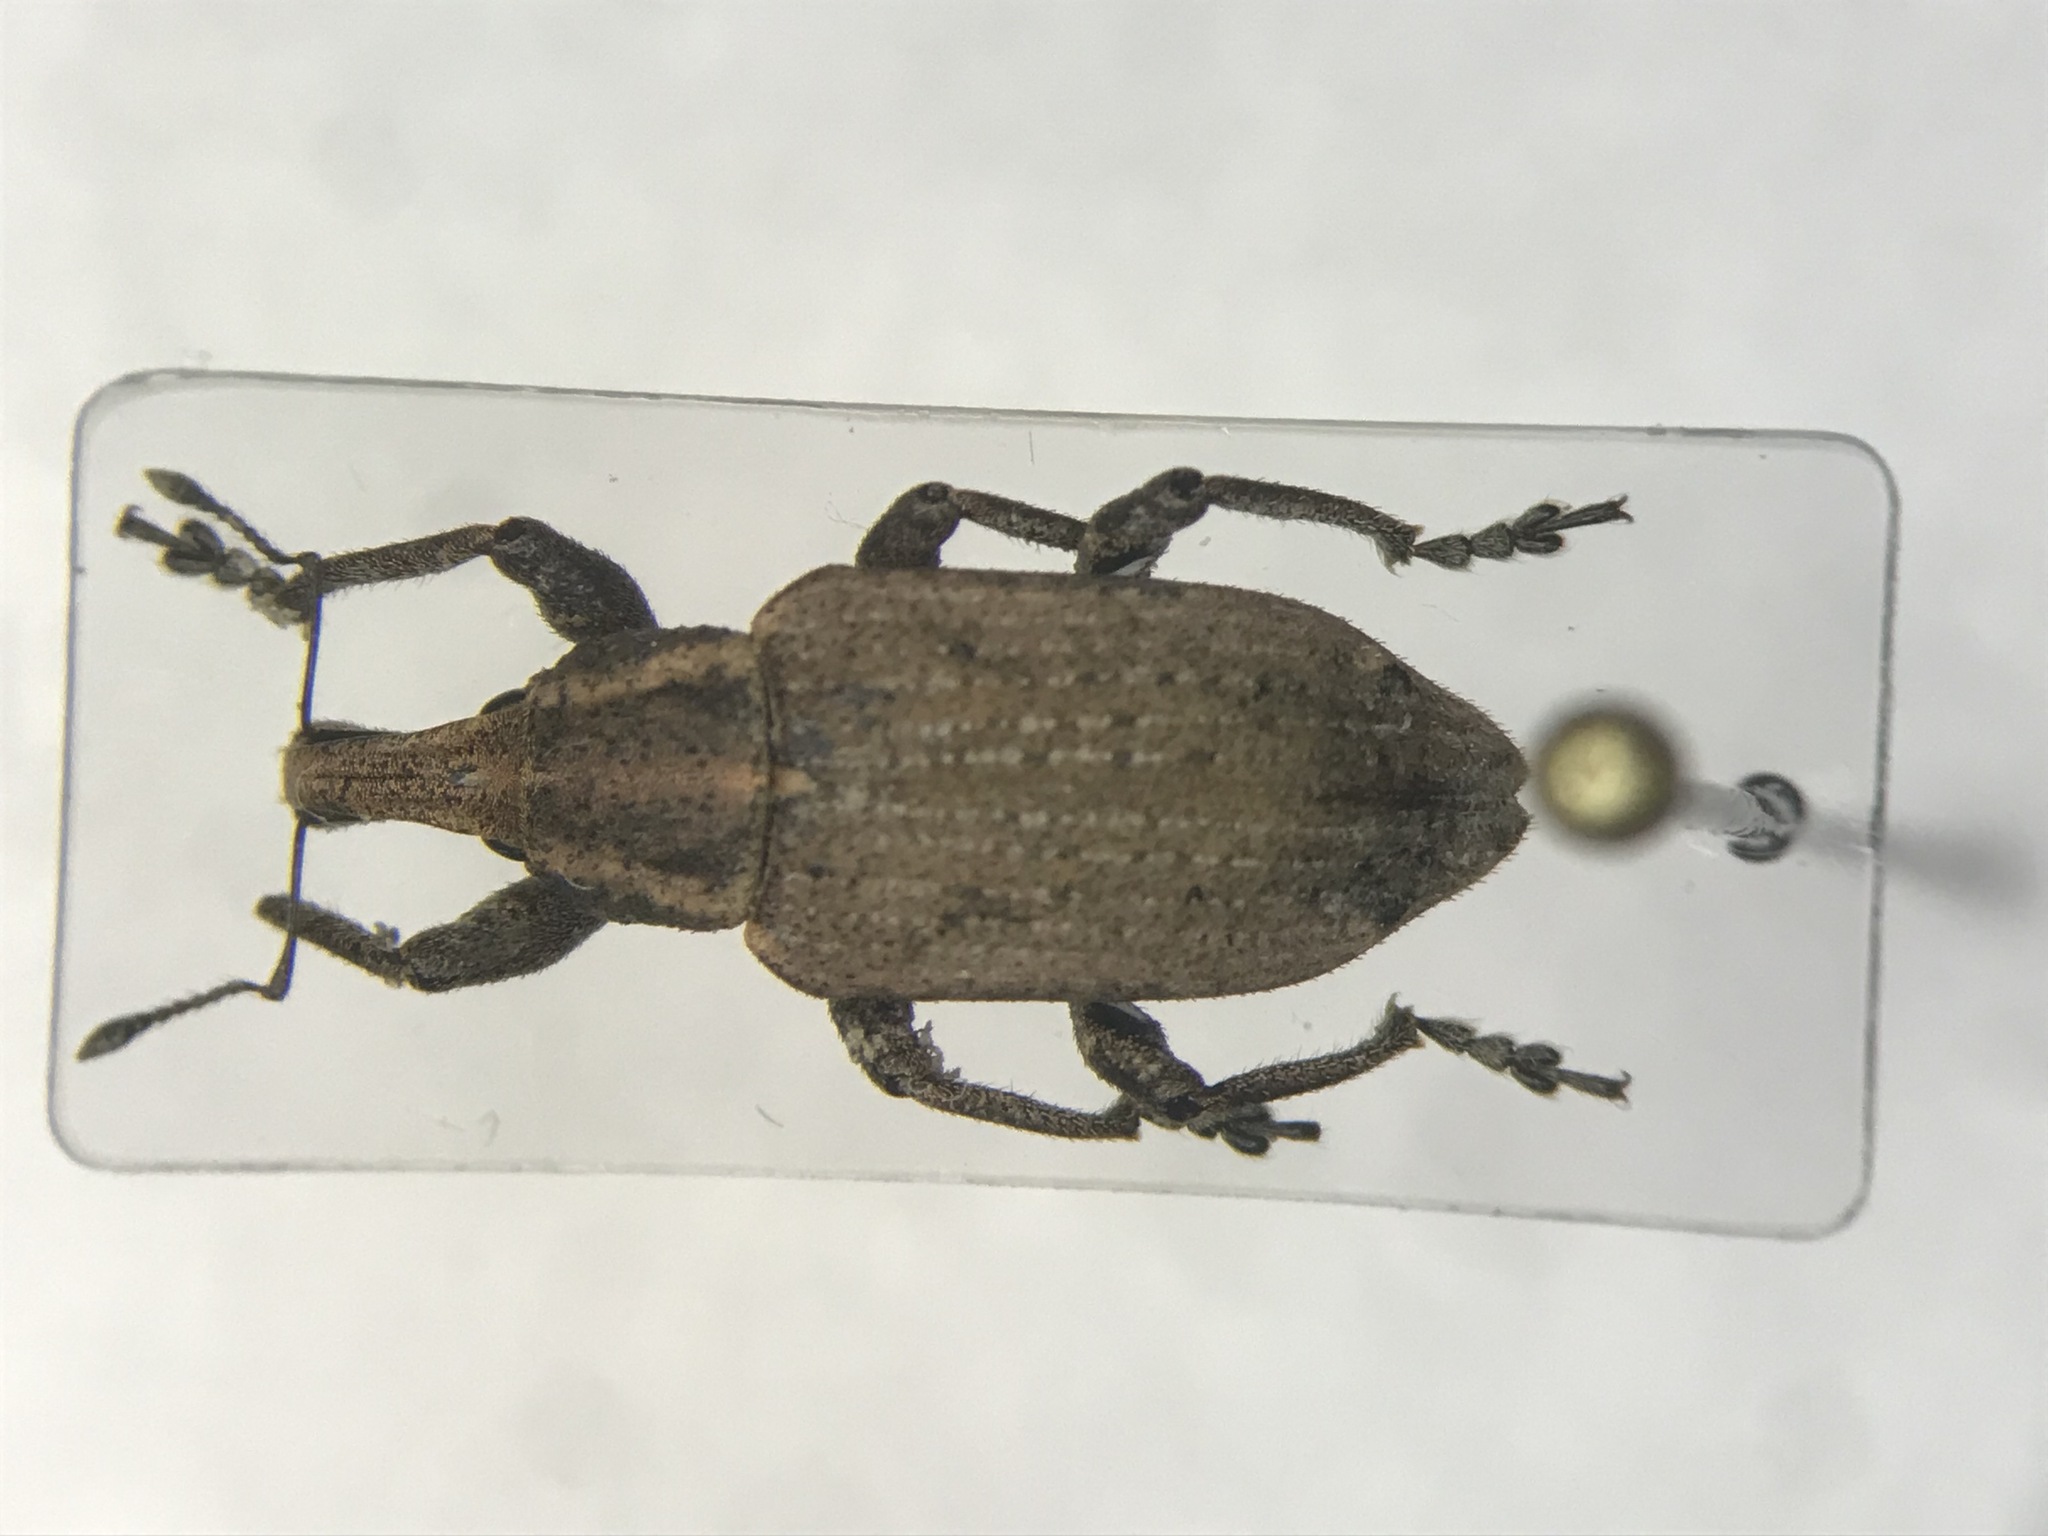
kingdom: Animalia
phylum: Arthropoda
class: Insecta
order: Coleoptera
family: Curculionidae
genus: Listronotus
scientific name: Listronotus caudatus
